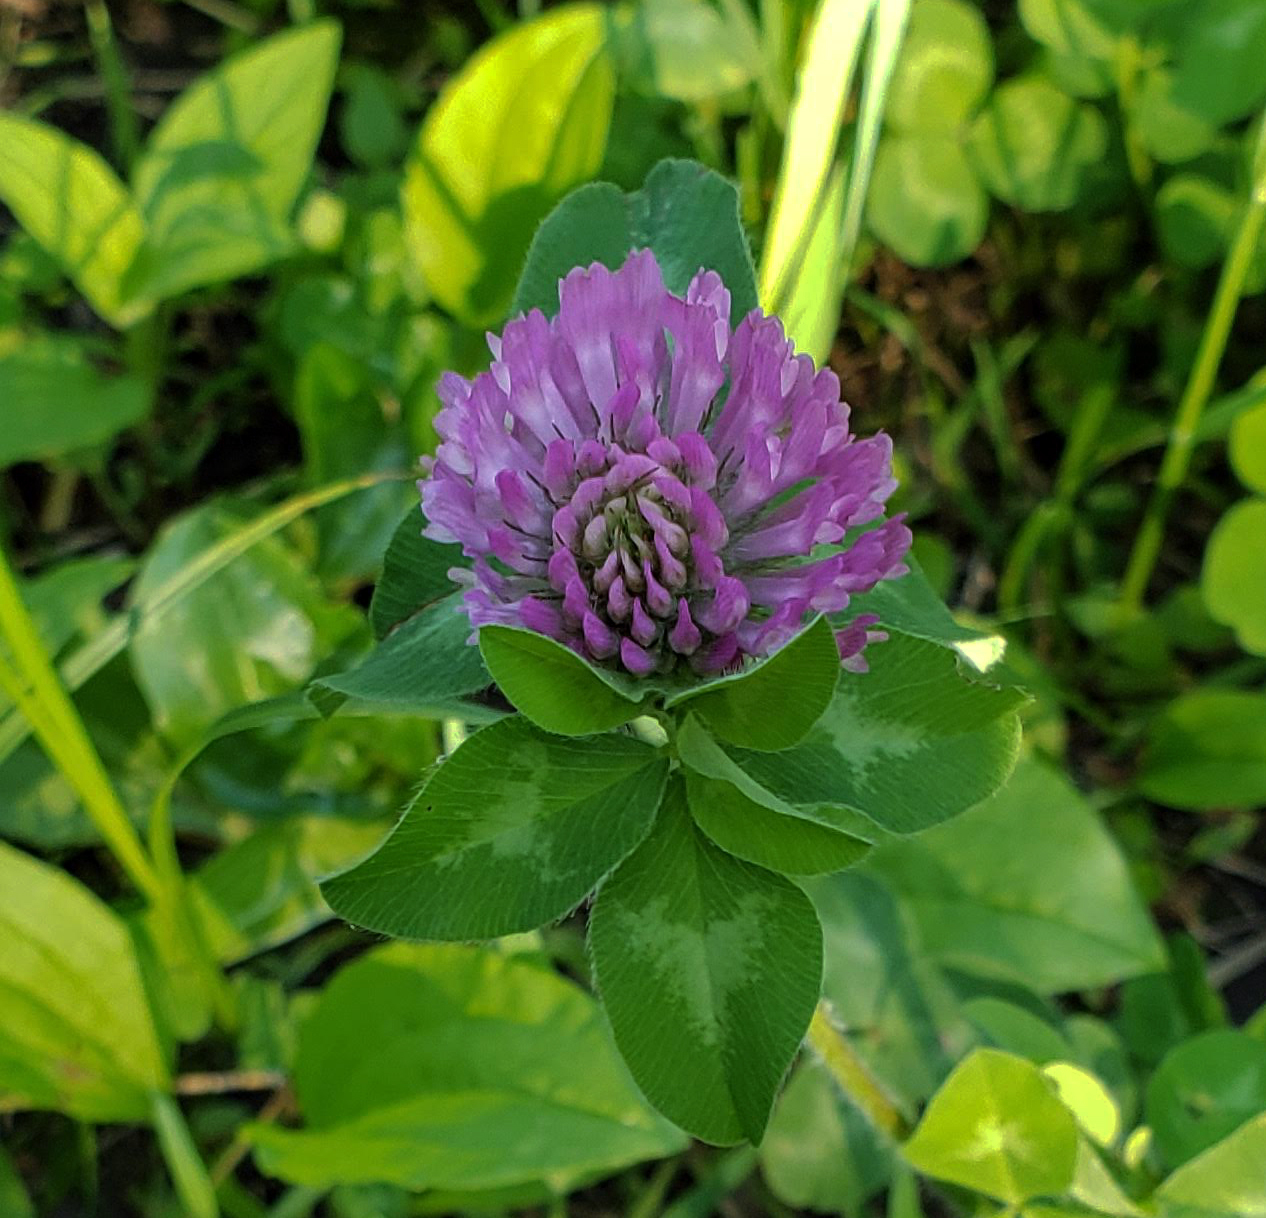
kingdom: Plantae
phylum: Tracheophyta
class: Magnoliopsida
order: Fabales
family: Fabaceae
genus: Trifolium
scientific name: Trifolium pratense
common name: Red clover
